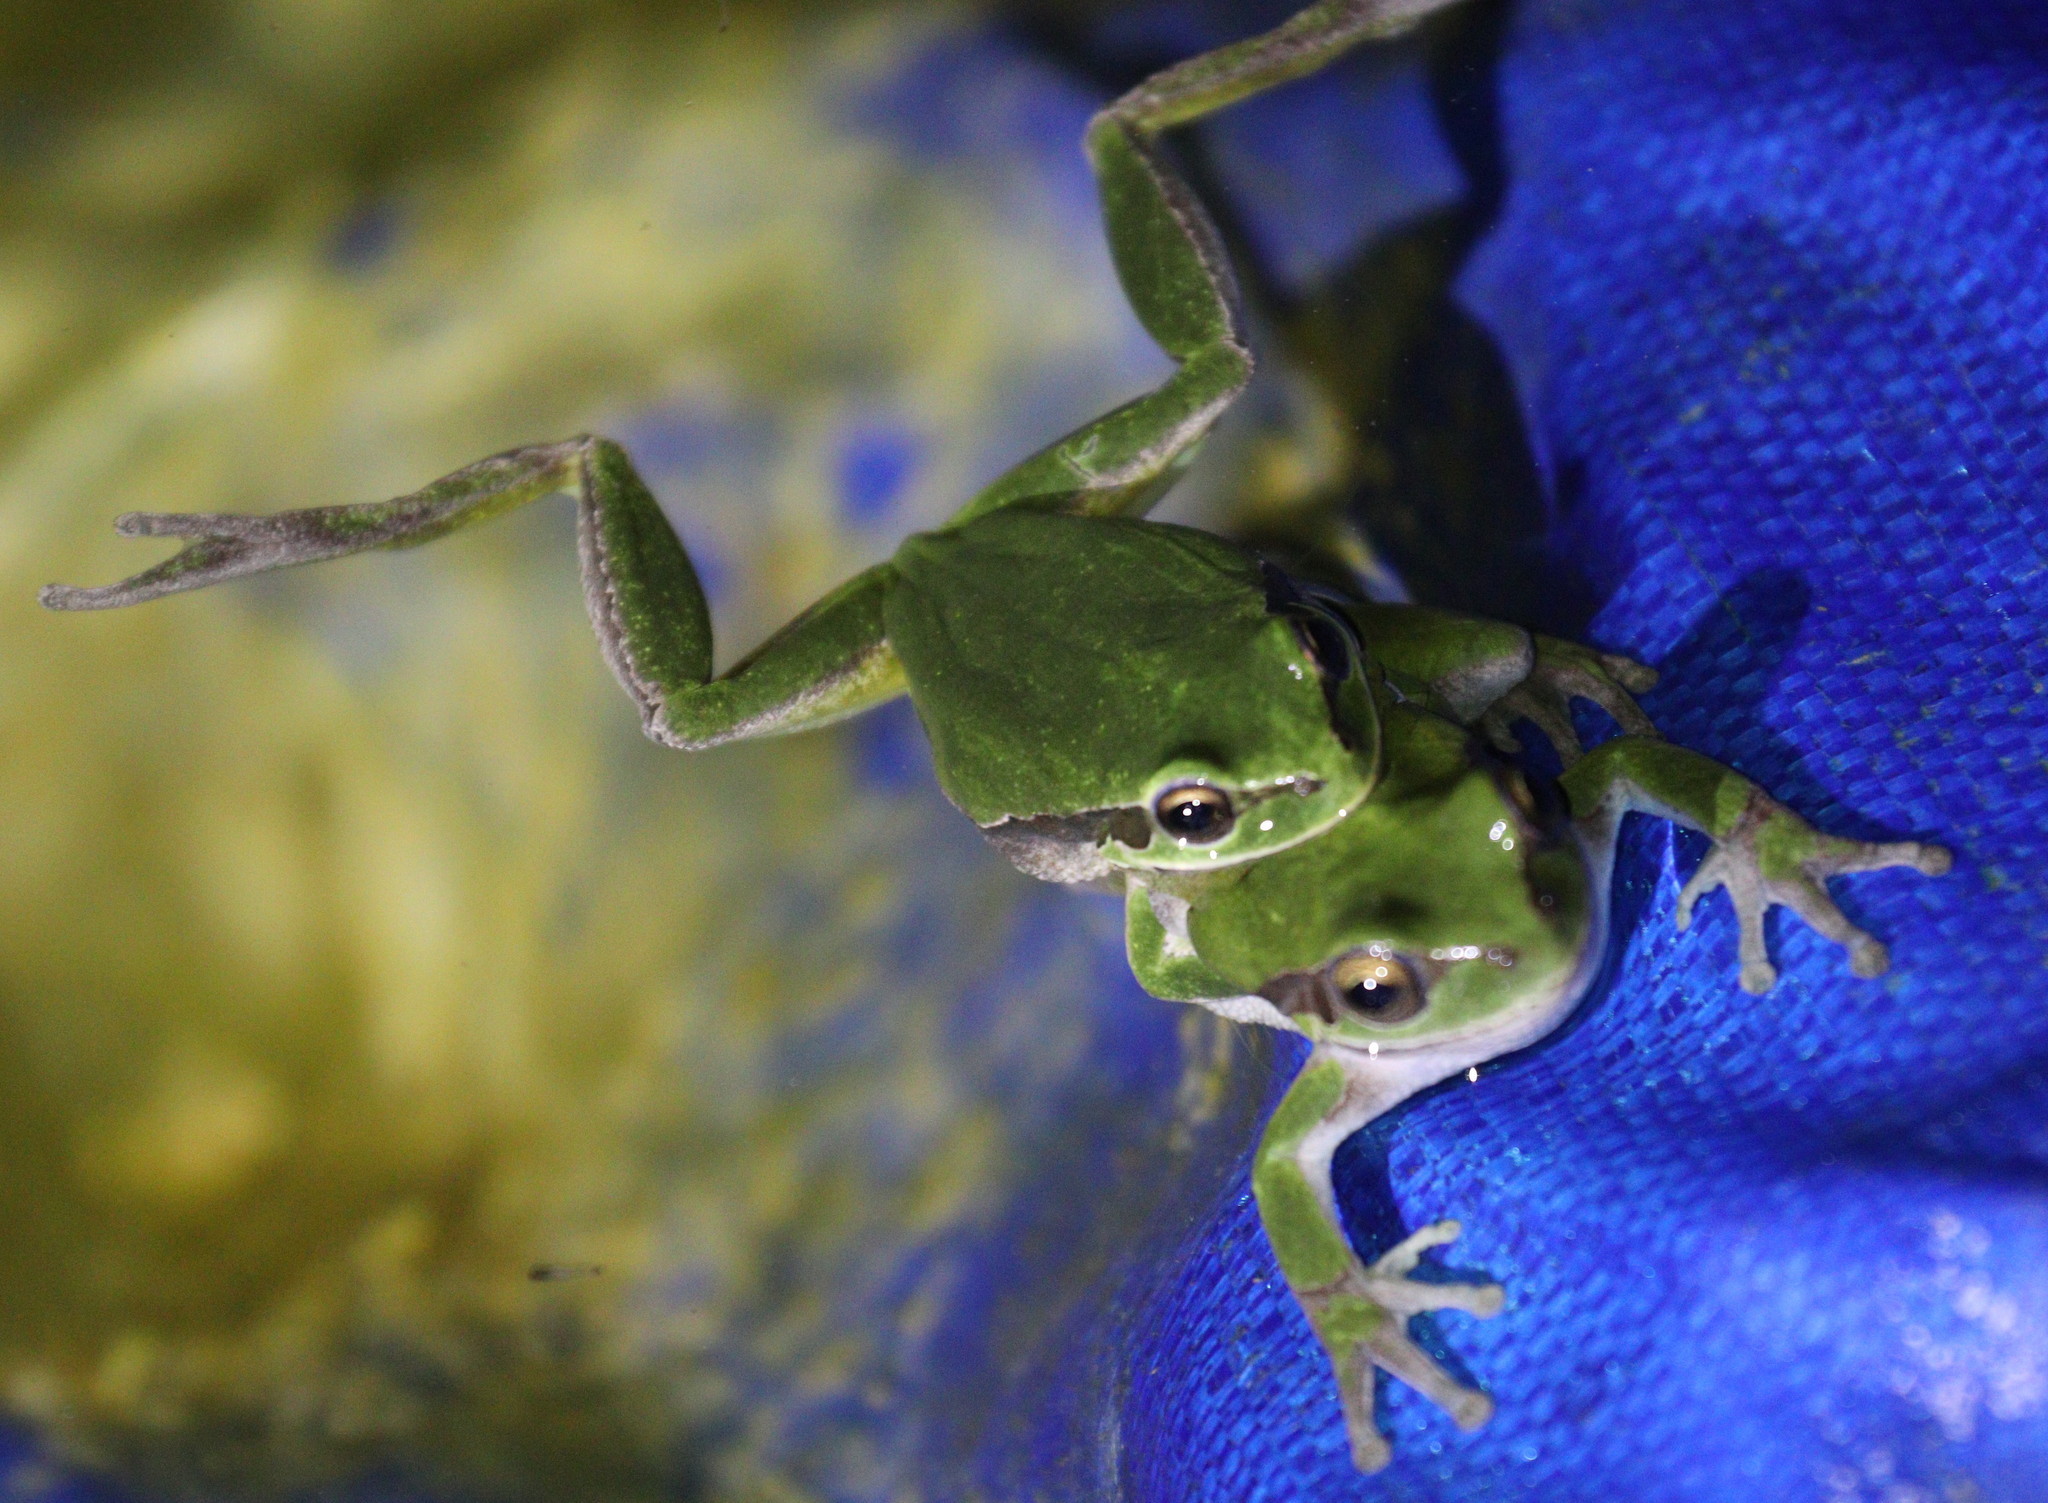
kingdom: Animalia
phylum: Chordata
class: Amphibia
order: Anura
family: Hylidae
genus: Hyla
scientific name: Hyla savignyi
